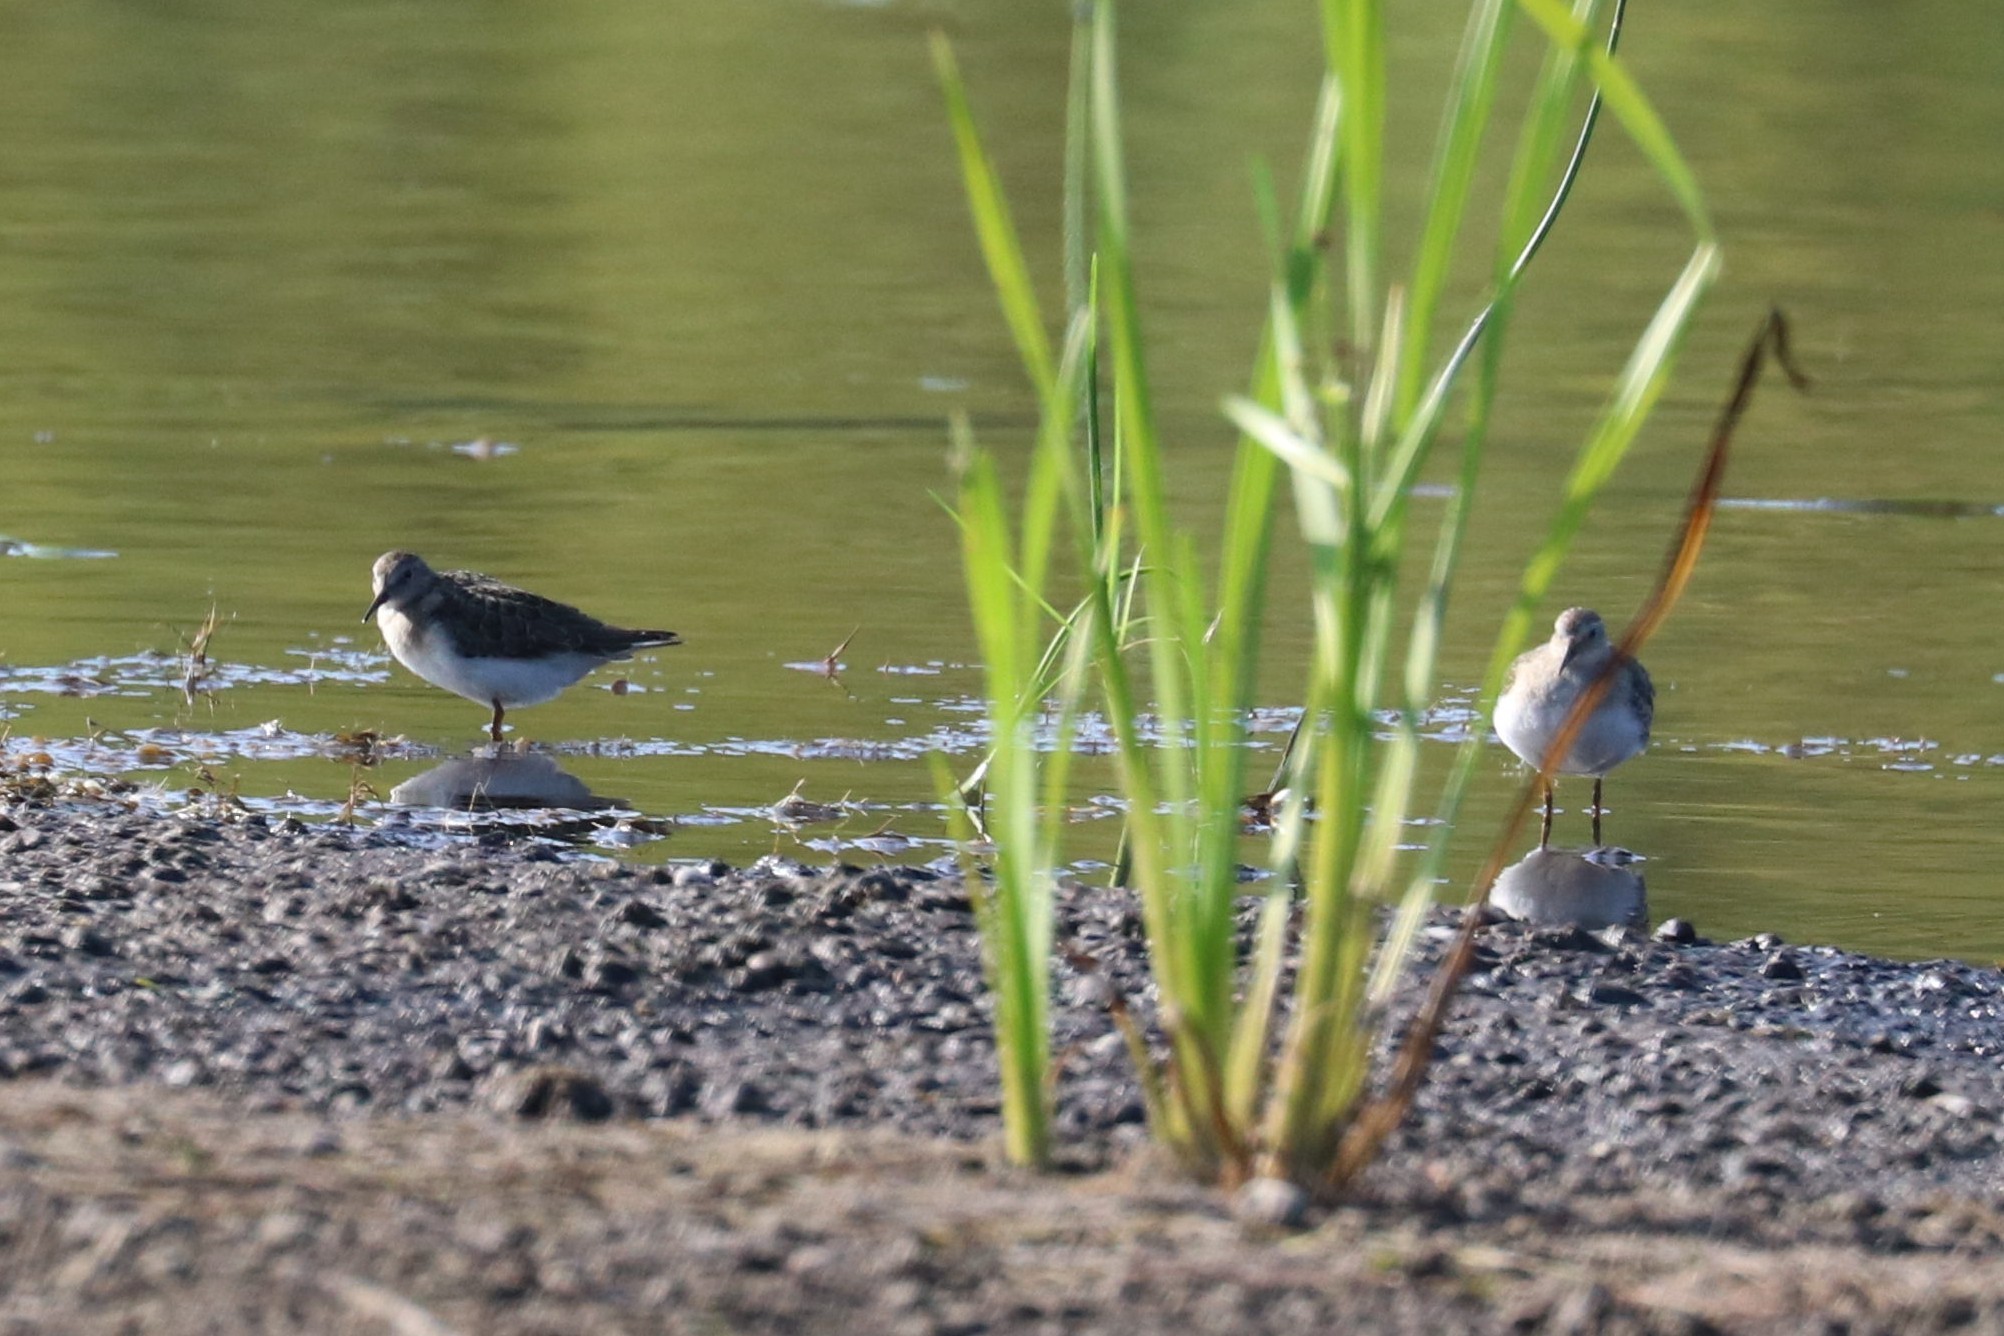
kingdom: Animalia
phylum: Chordata
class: Aves
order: Charadriiformes
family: Scolopacidae
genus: Calidris
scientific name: Calidris temminckii
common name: Temminck's stint
